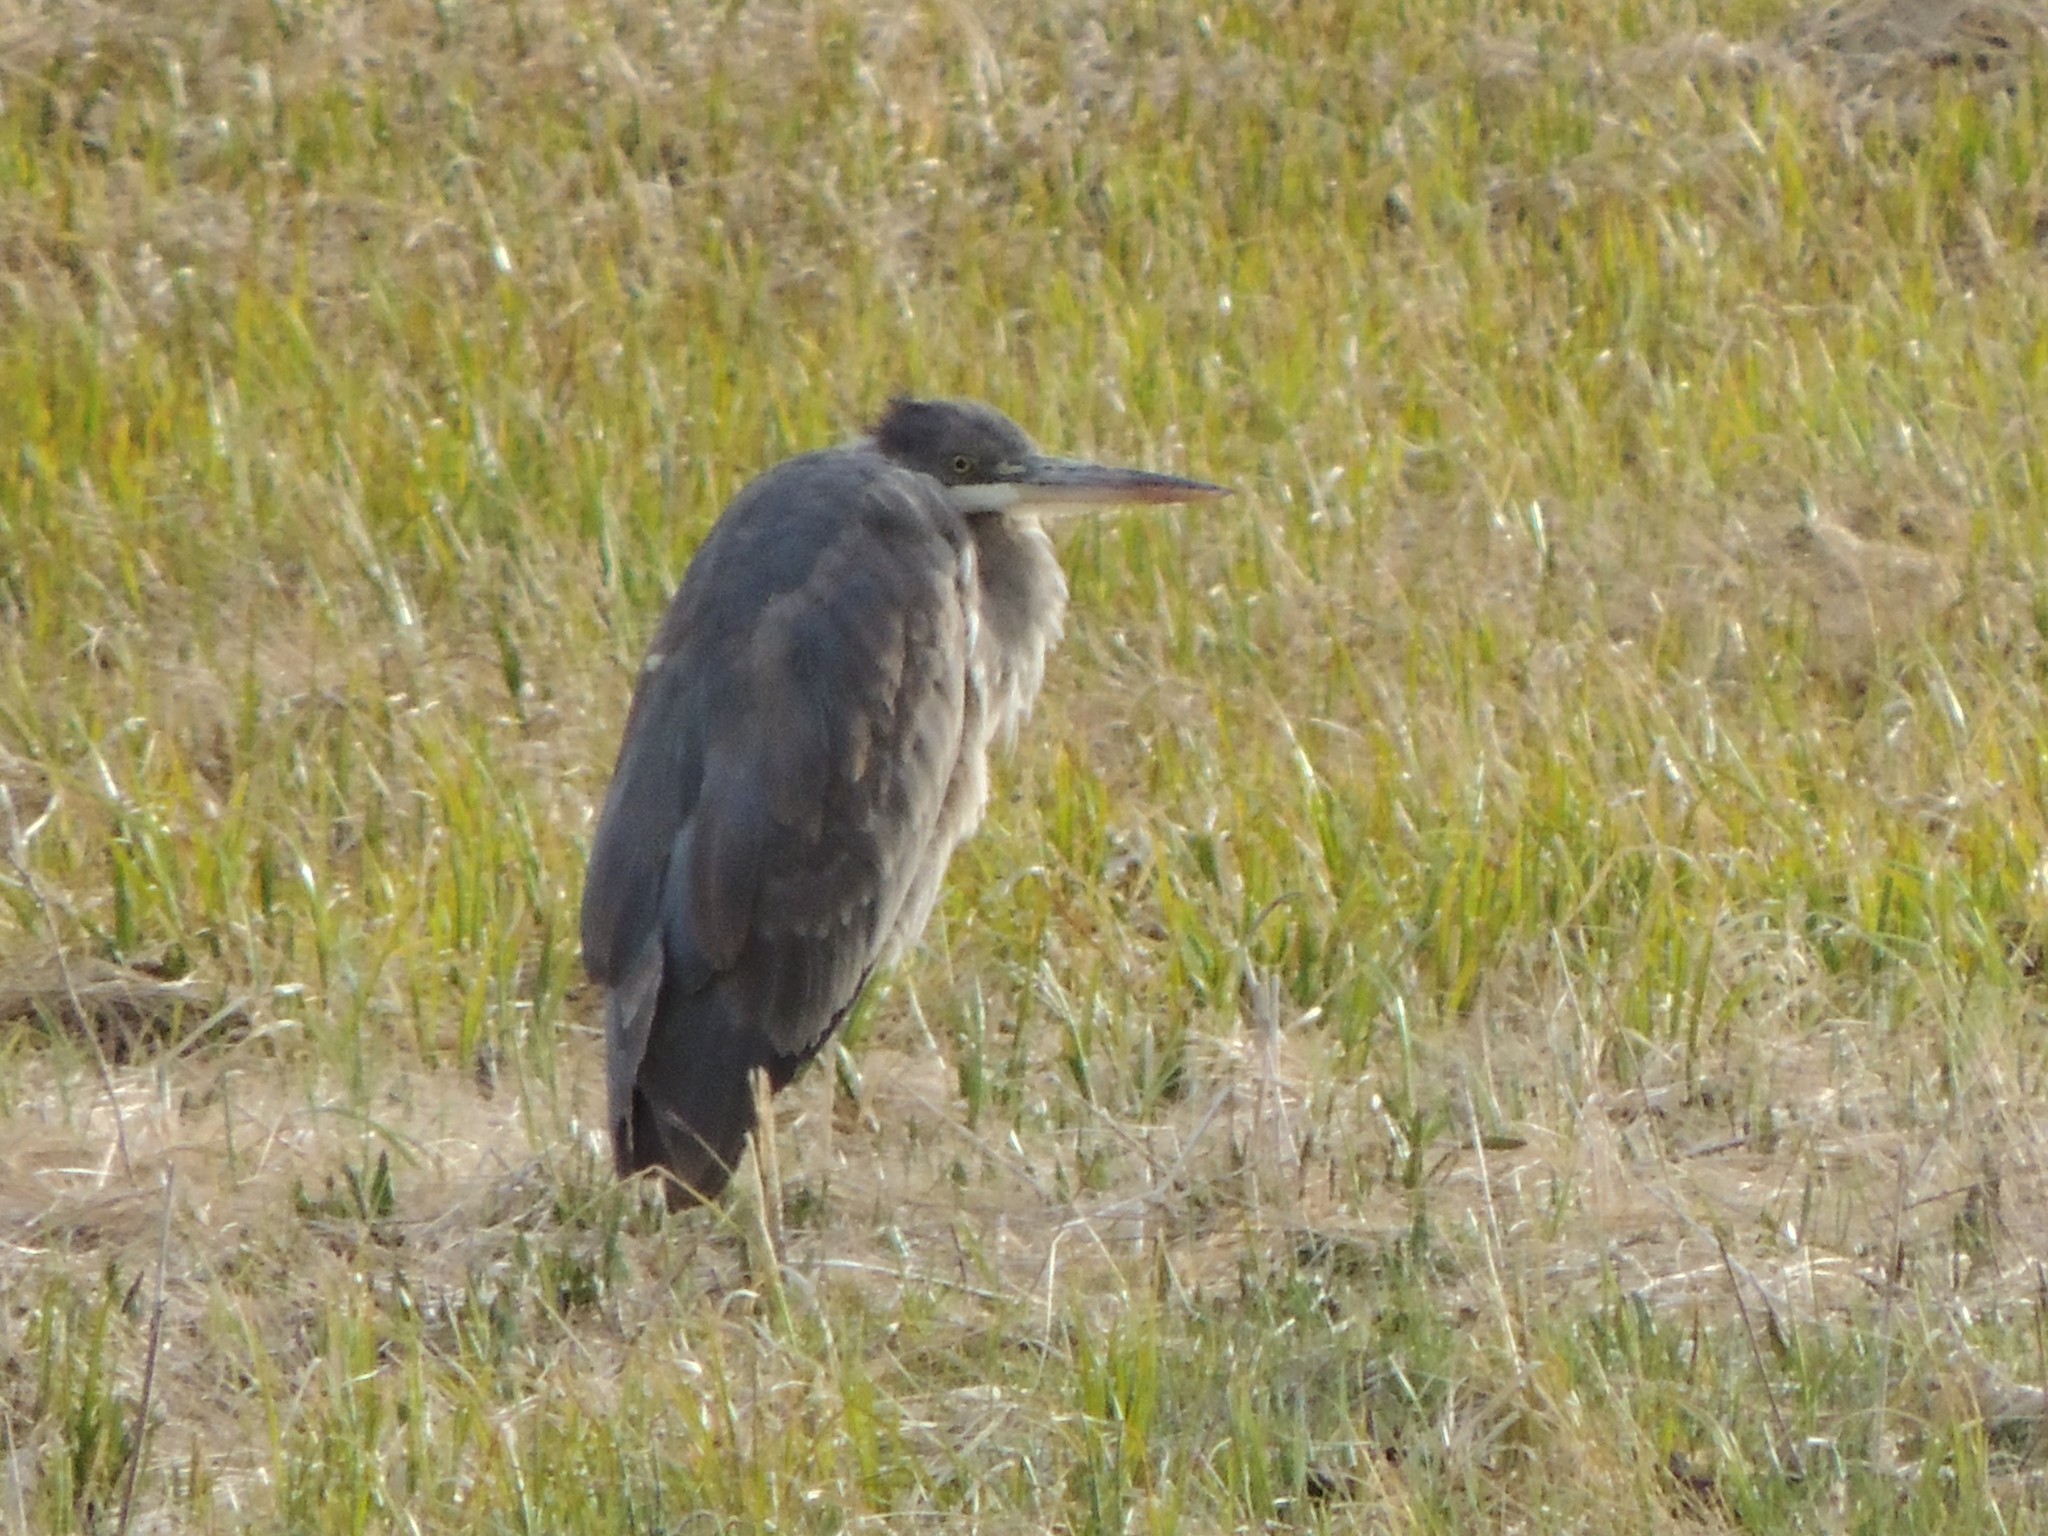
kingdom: Animalia
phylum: Chordata
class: Aves
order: Pelecaniformes
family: Ardeidae
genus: Ardea
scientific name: Ardea herodias
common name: Great blue heron
